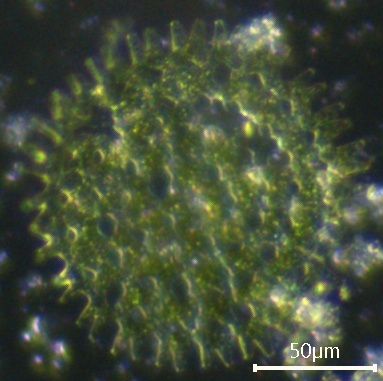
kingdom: Plantae
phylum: Chlorophyta
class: Chlorophyceae
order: Sphaeropleales
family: Hydrodictyaceae
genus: Pediastrum
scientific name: Pediastrum duplex
